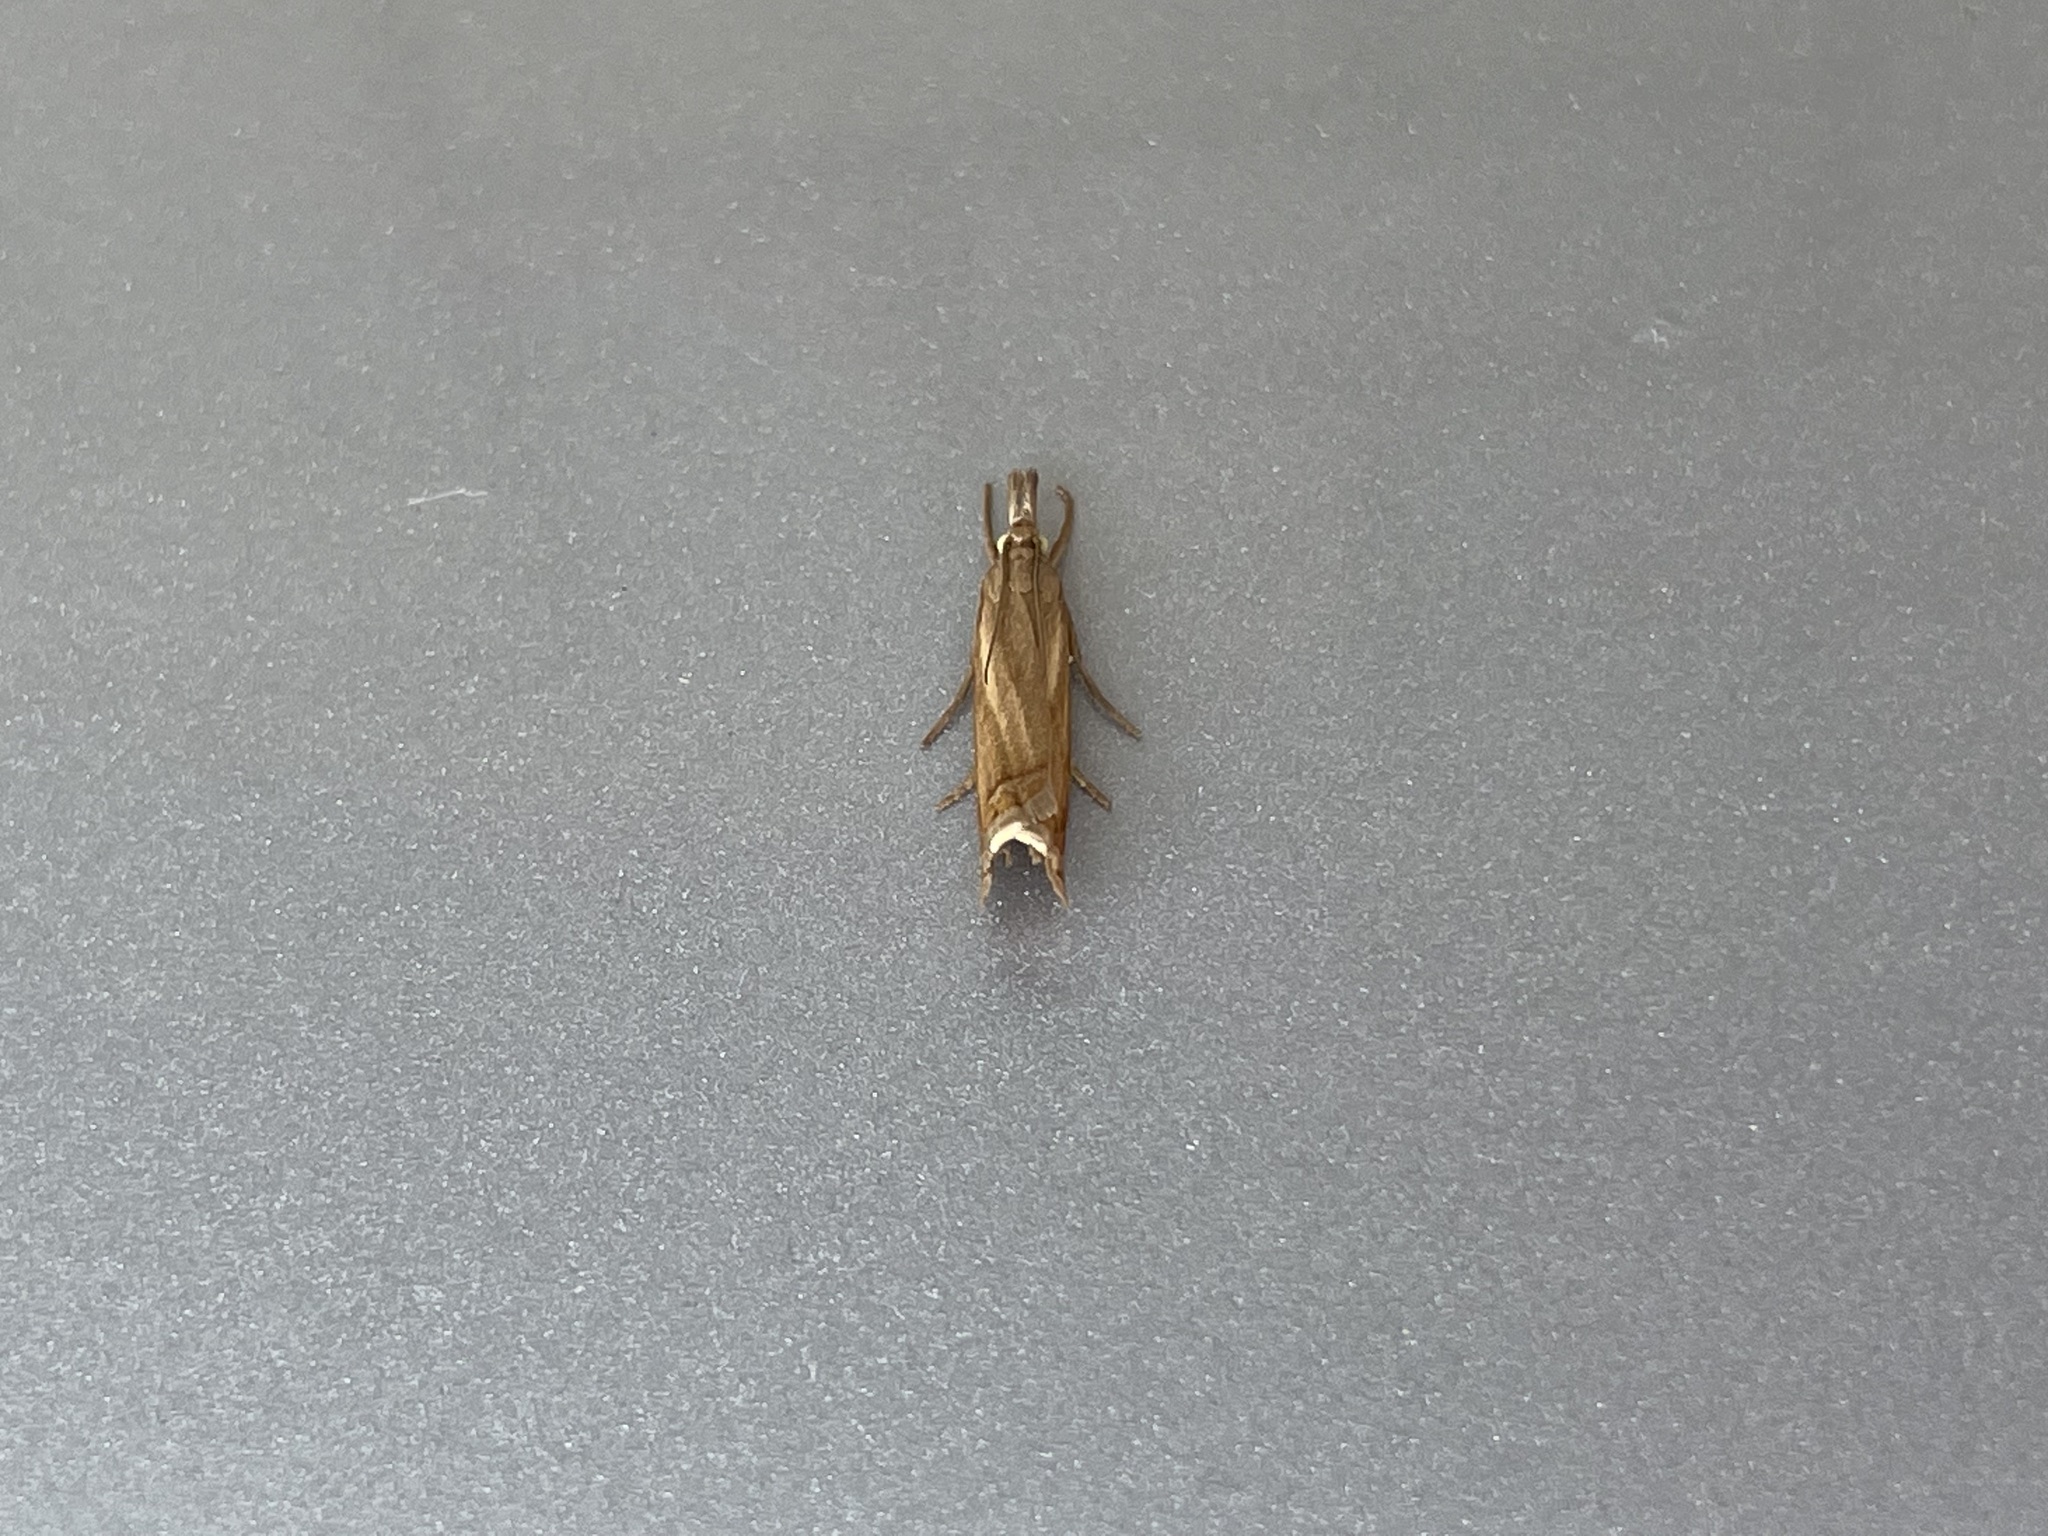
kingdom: Animalia
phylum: Arthropoda
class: Insecta
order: Lepidoptera
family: Crambidae
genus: Chrysoteuchia
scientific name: Chrysoteuchia culmella
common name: Garden grass-veneer
